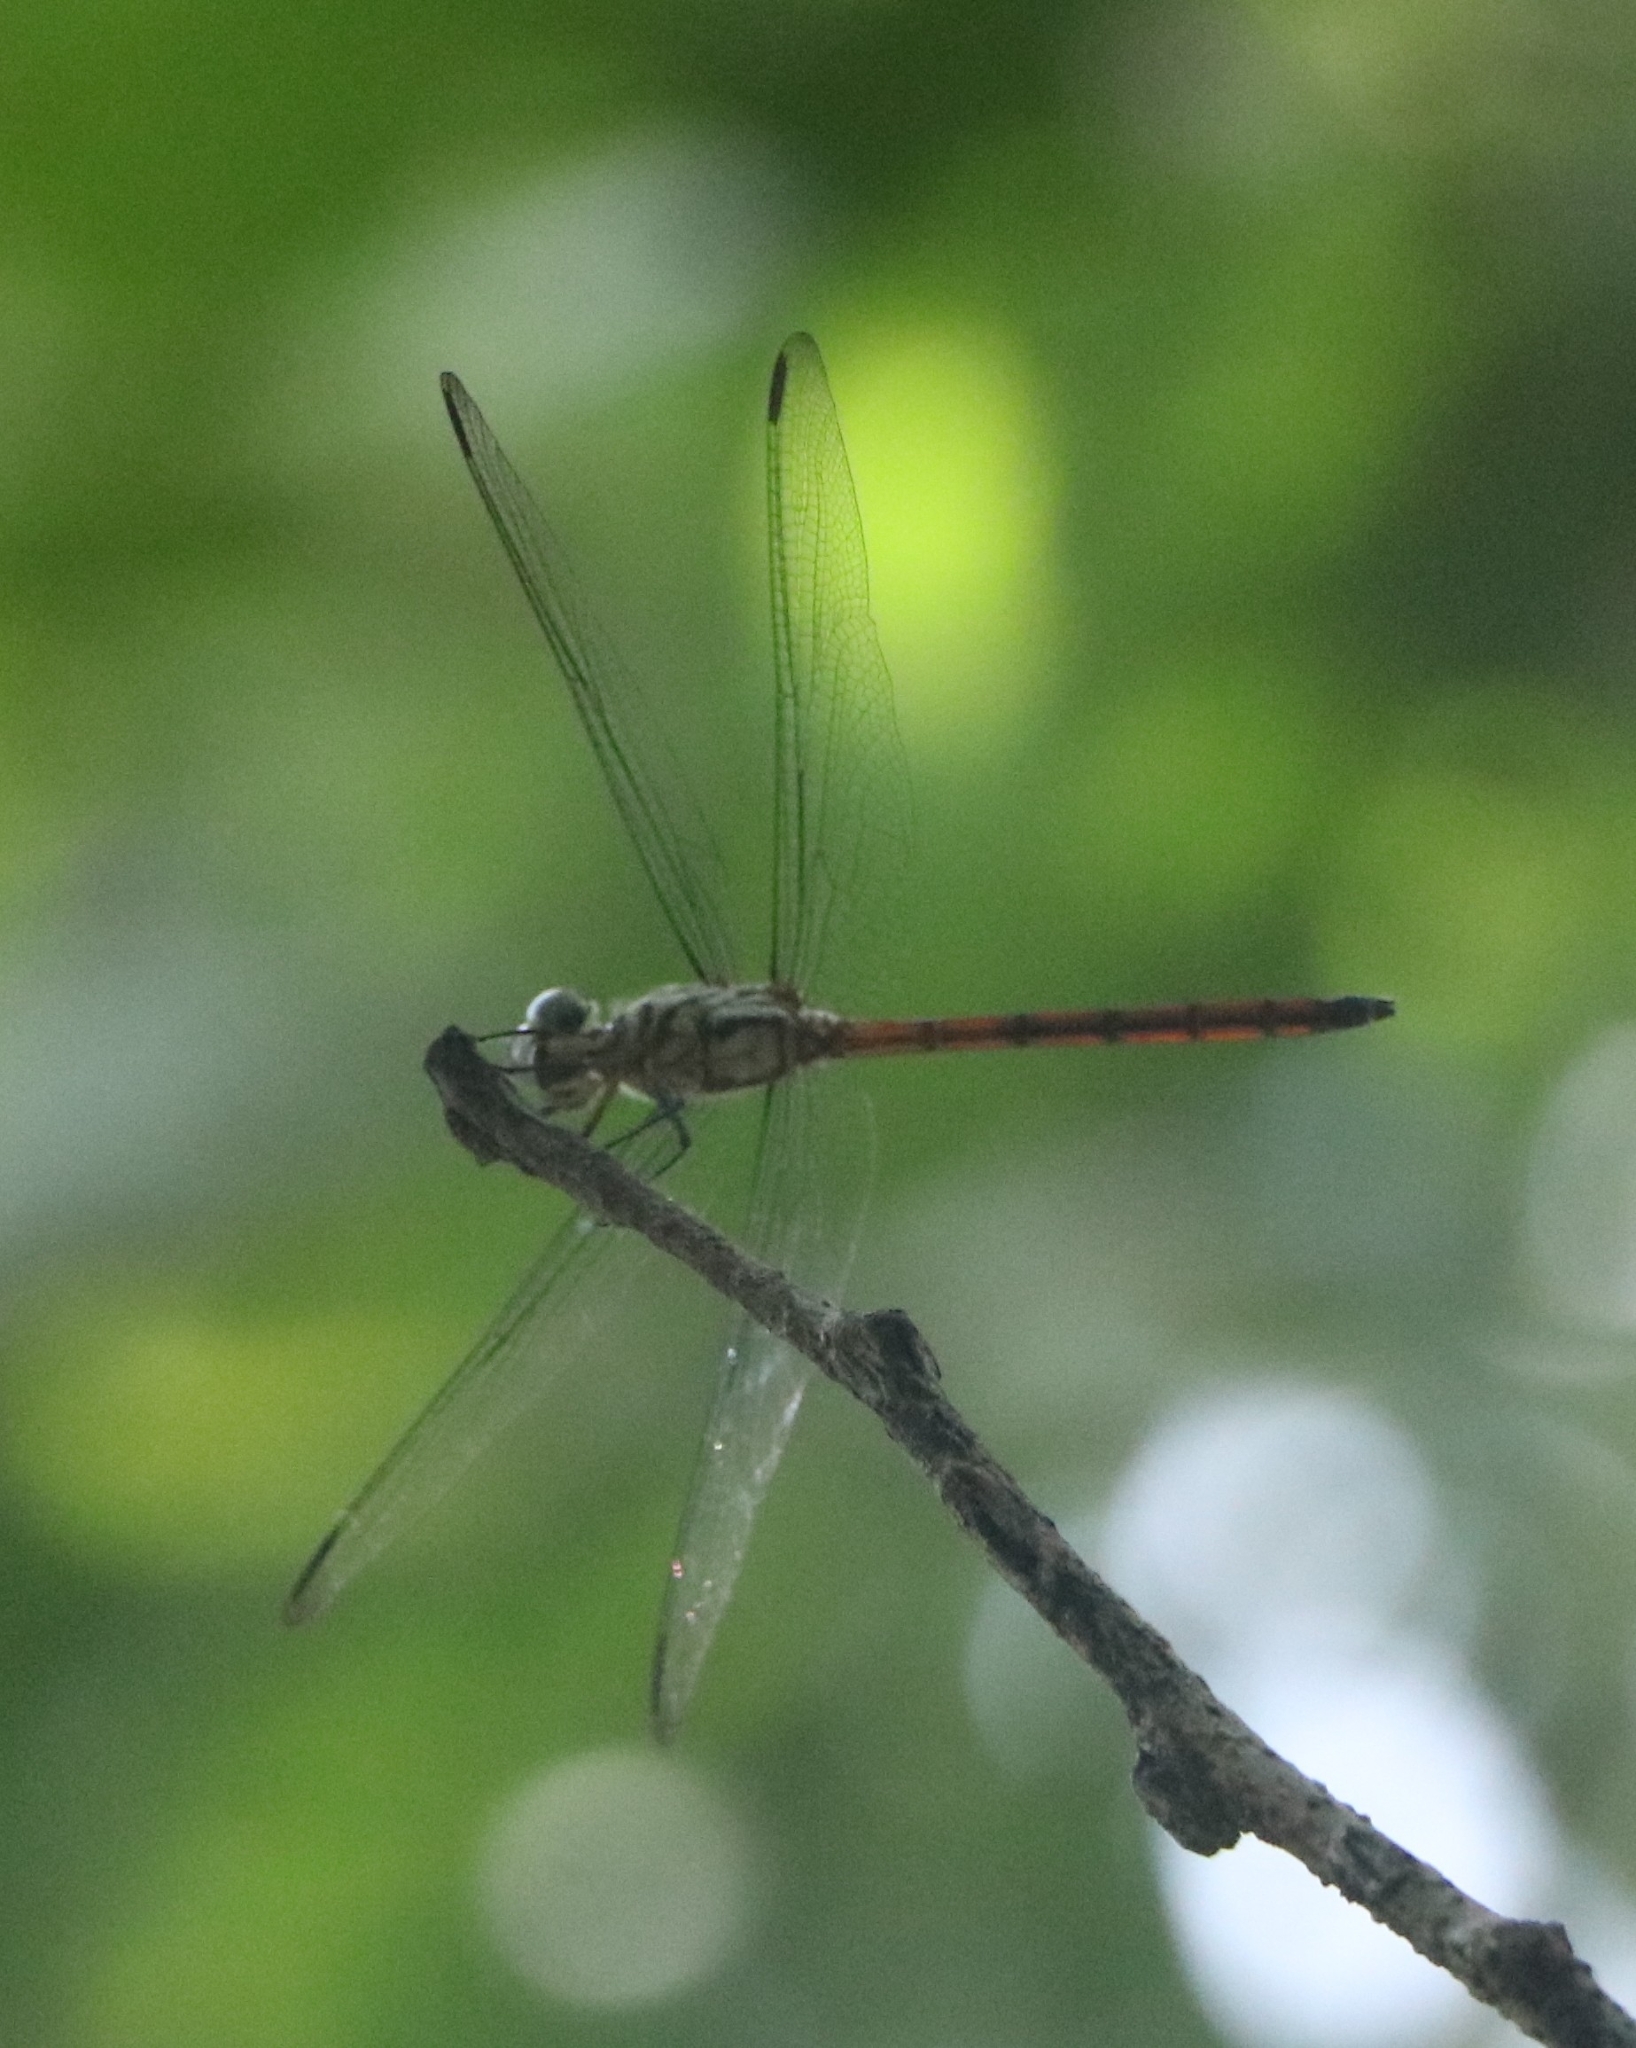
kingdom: Animalia
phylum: Arthropoda
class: Insecta
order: Odonata
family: Libellulidae
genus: Lathrecista
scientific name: Lathrecista asiatica
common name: Scarlet grenadier
